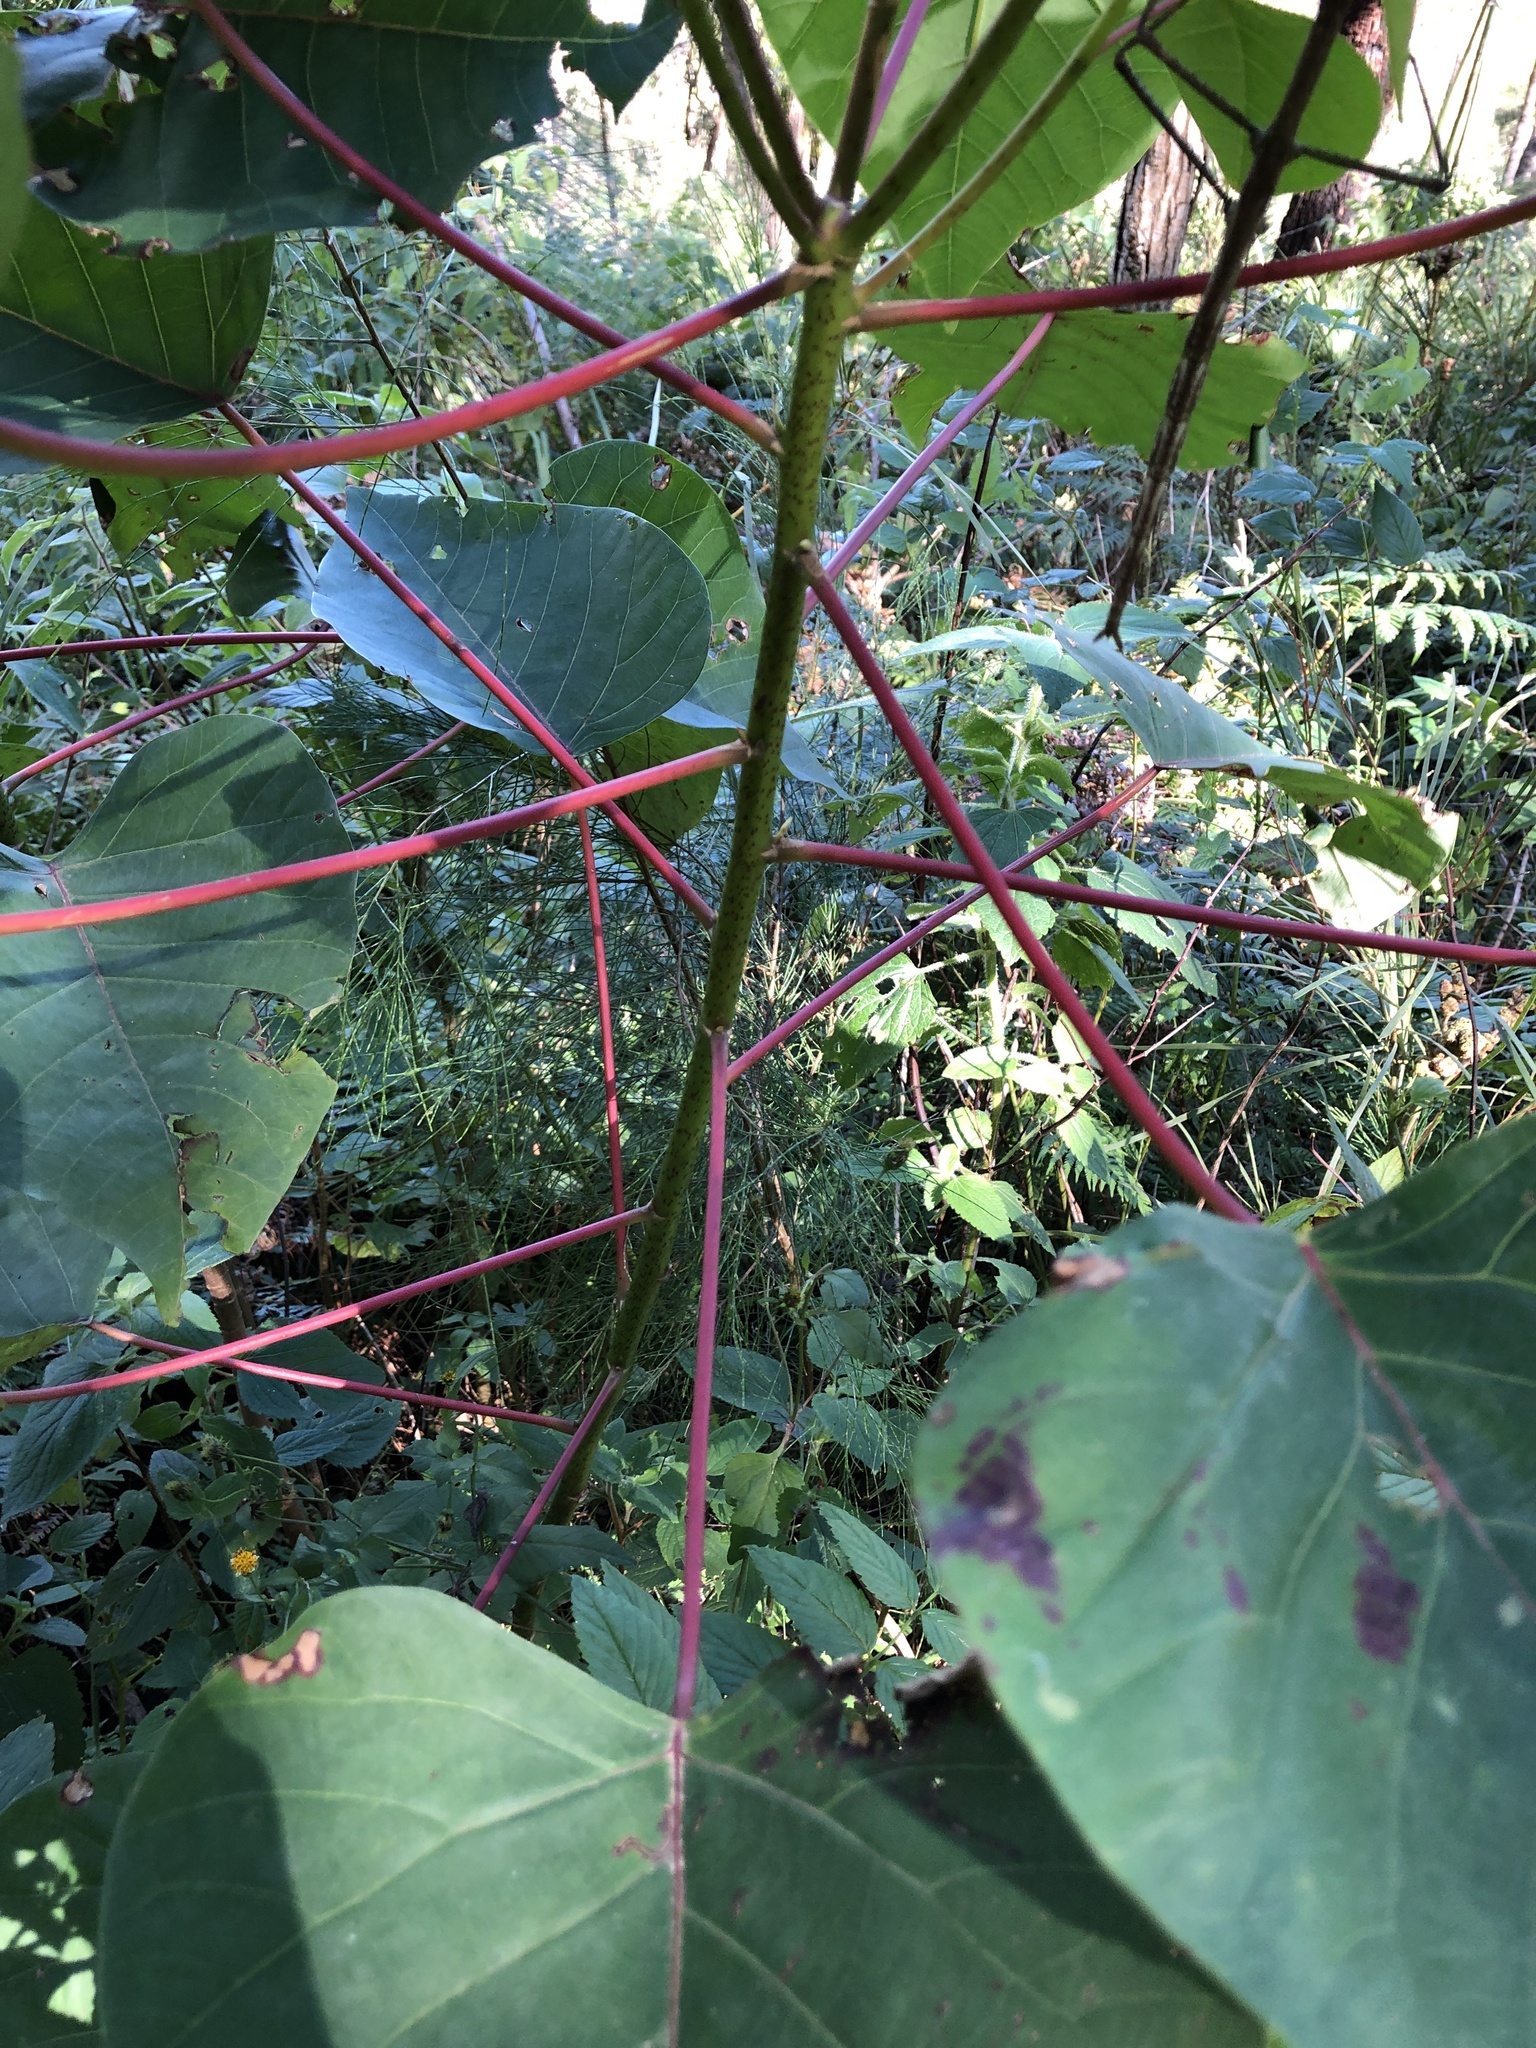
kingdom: Plantae
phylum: Tracheophyta
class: Magnoliopsida
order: Malpighiales
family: Euphorbiaceae
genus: Homalanthus
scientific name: Homalanthus populifolius
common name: Queensland poplar
